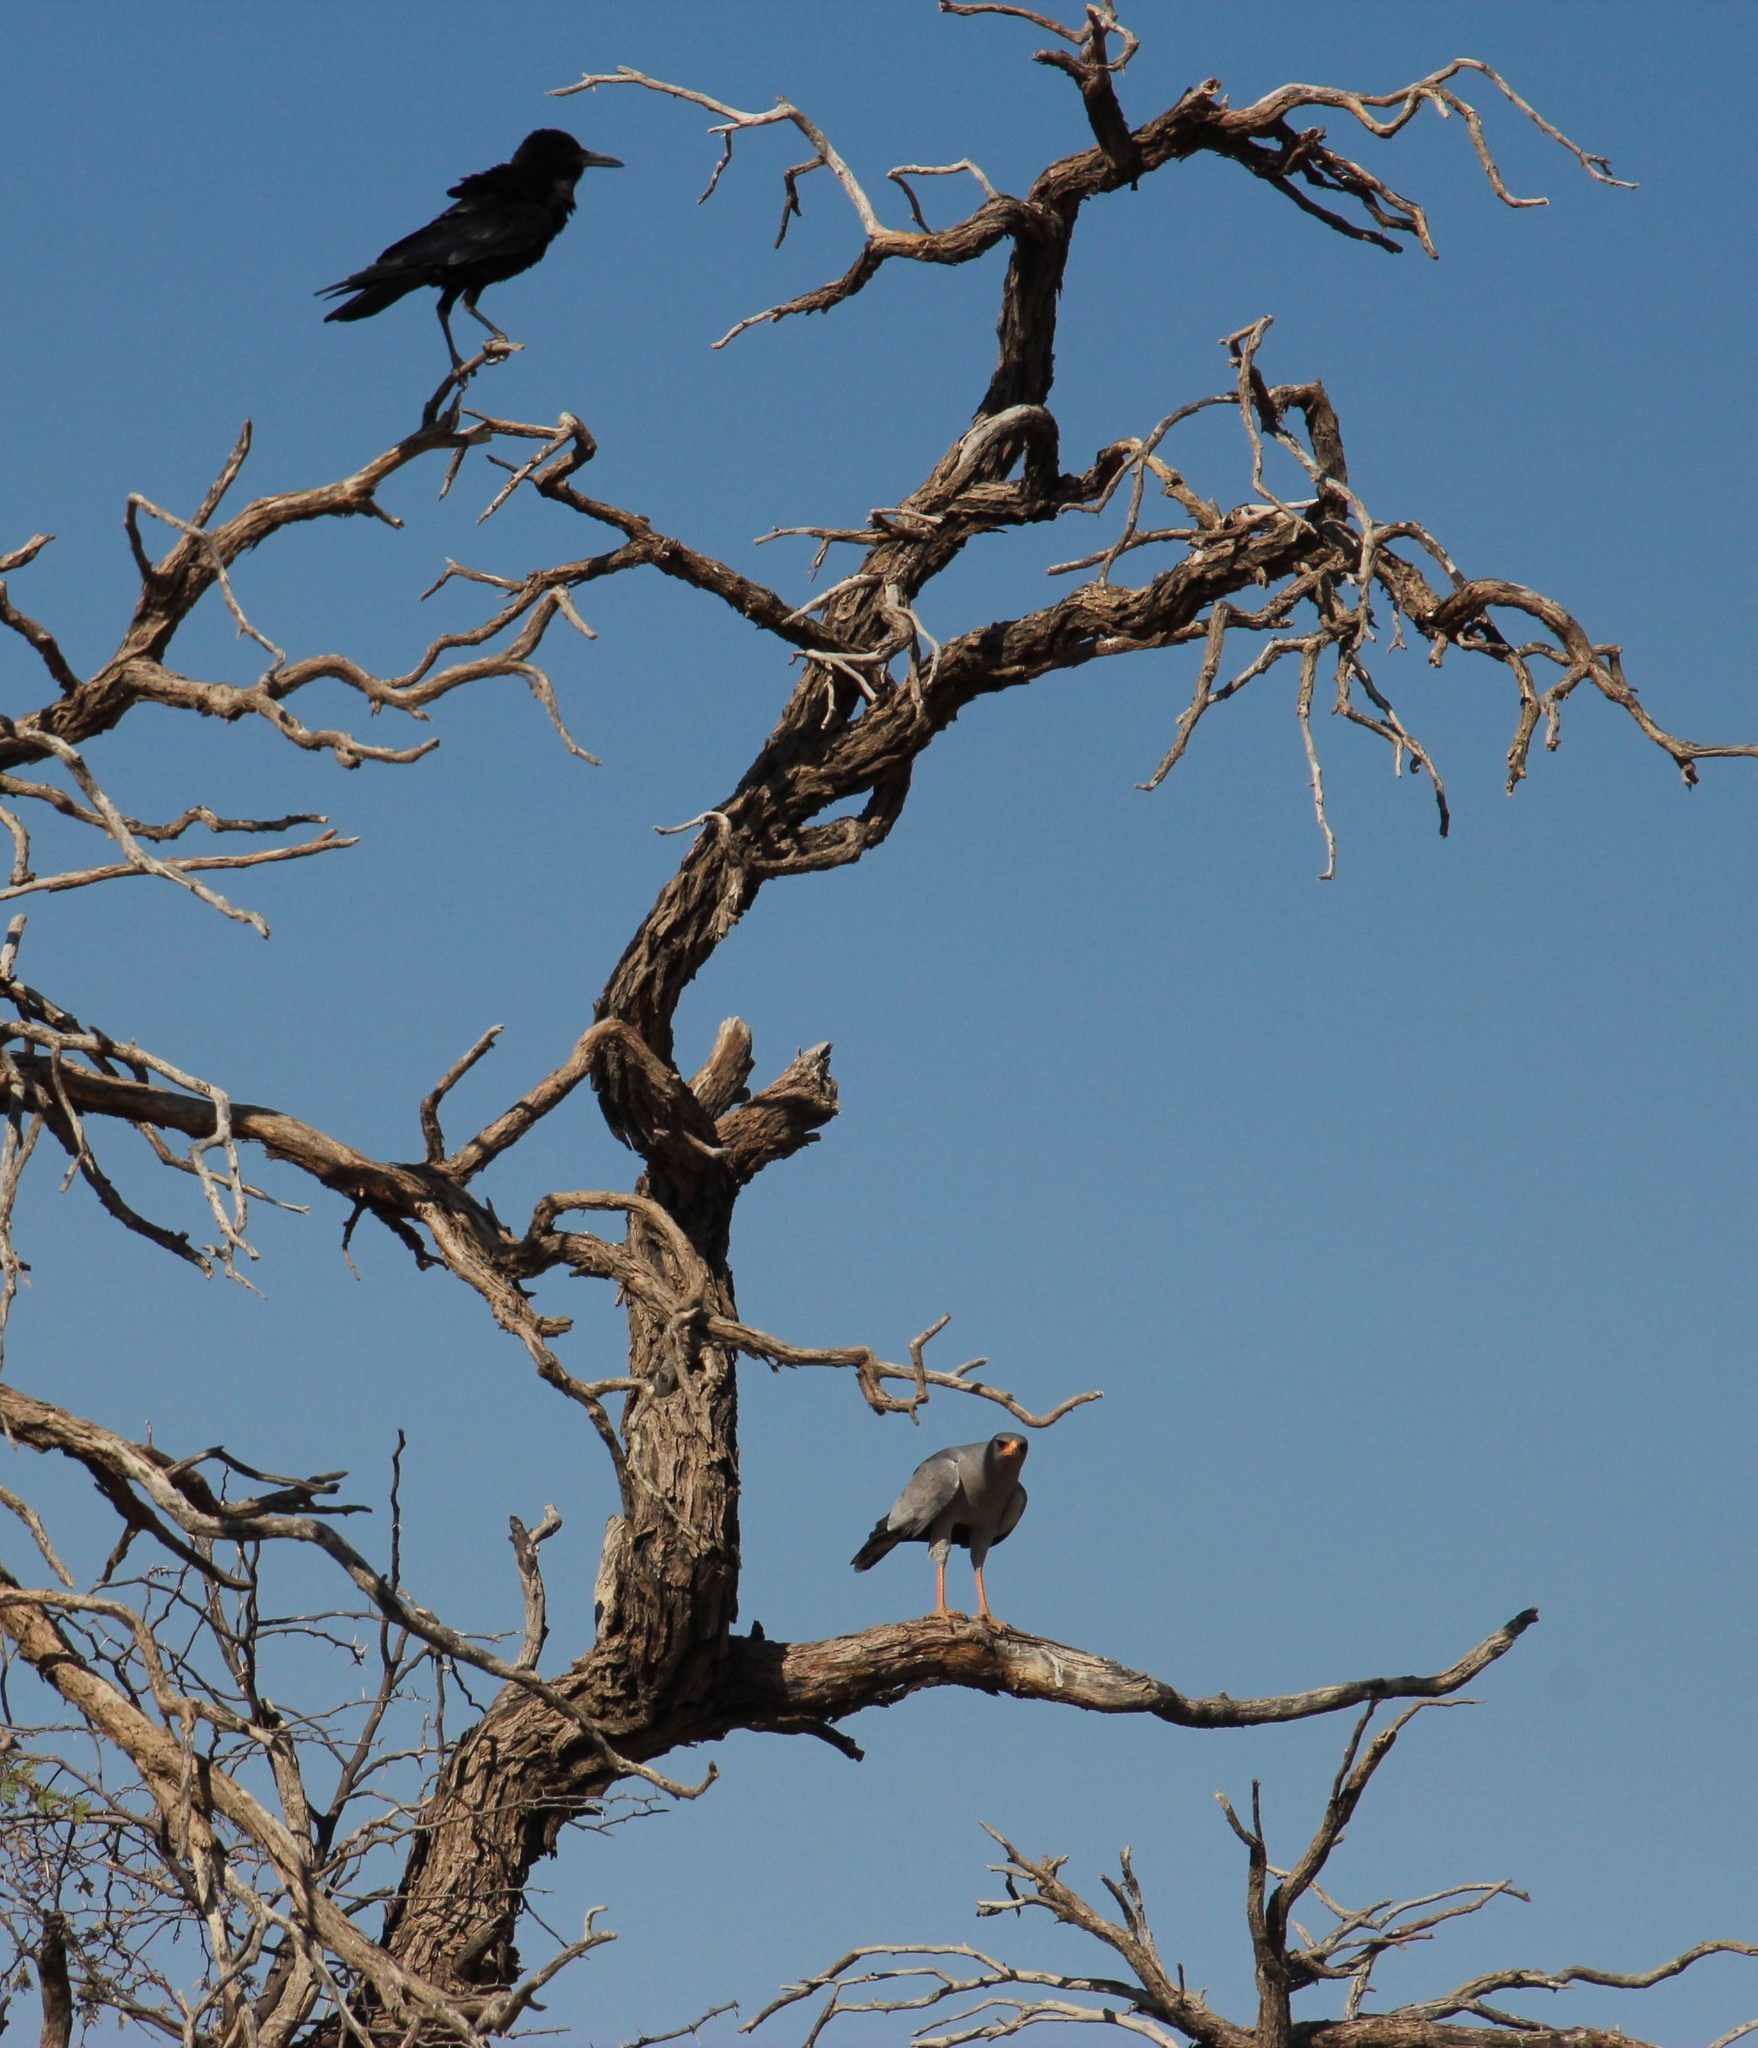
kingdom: Animalia
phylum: Chordata
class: Aves
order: Passeriformes
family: Corvidae
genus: Corvus
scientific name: Corvus capensis
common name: Cape crow
